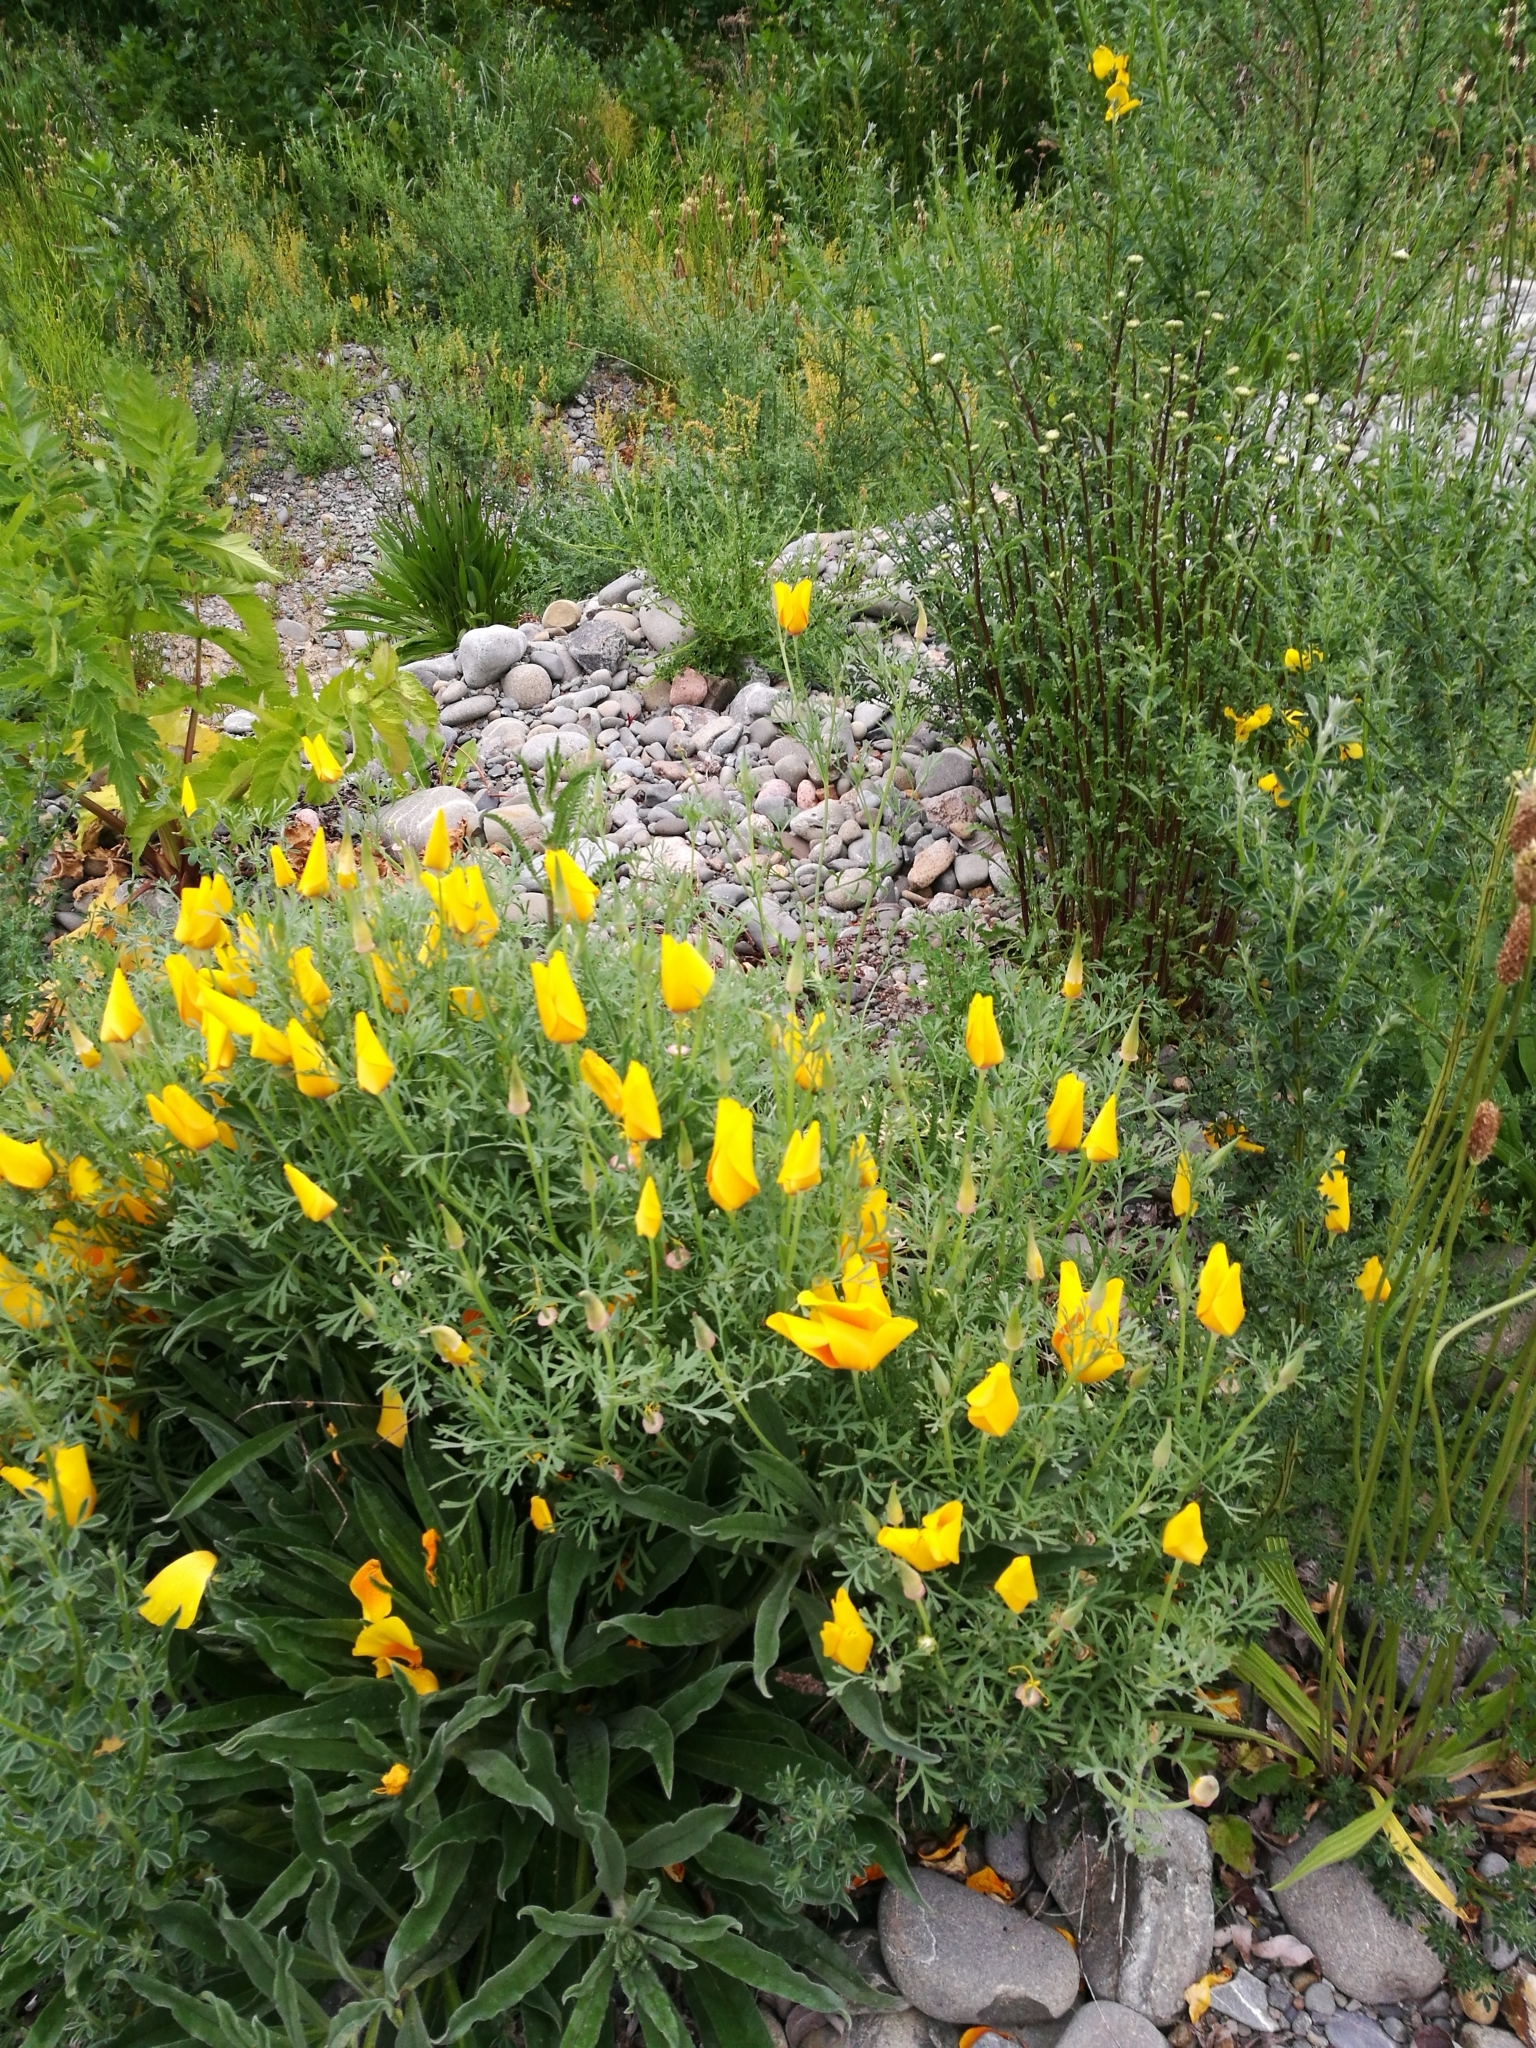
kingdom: Plantae
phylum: Tracheophyta
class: Magnoliopsida
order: Ranunculales
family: Papaveraceae
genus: Eschscholzia
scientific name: Eschscholzia californica
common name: California poppy
